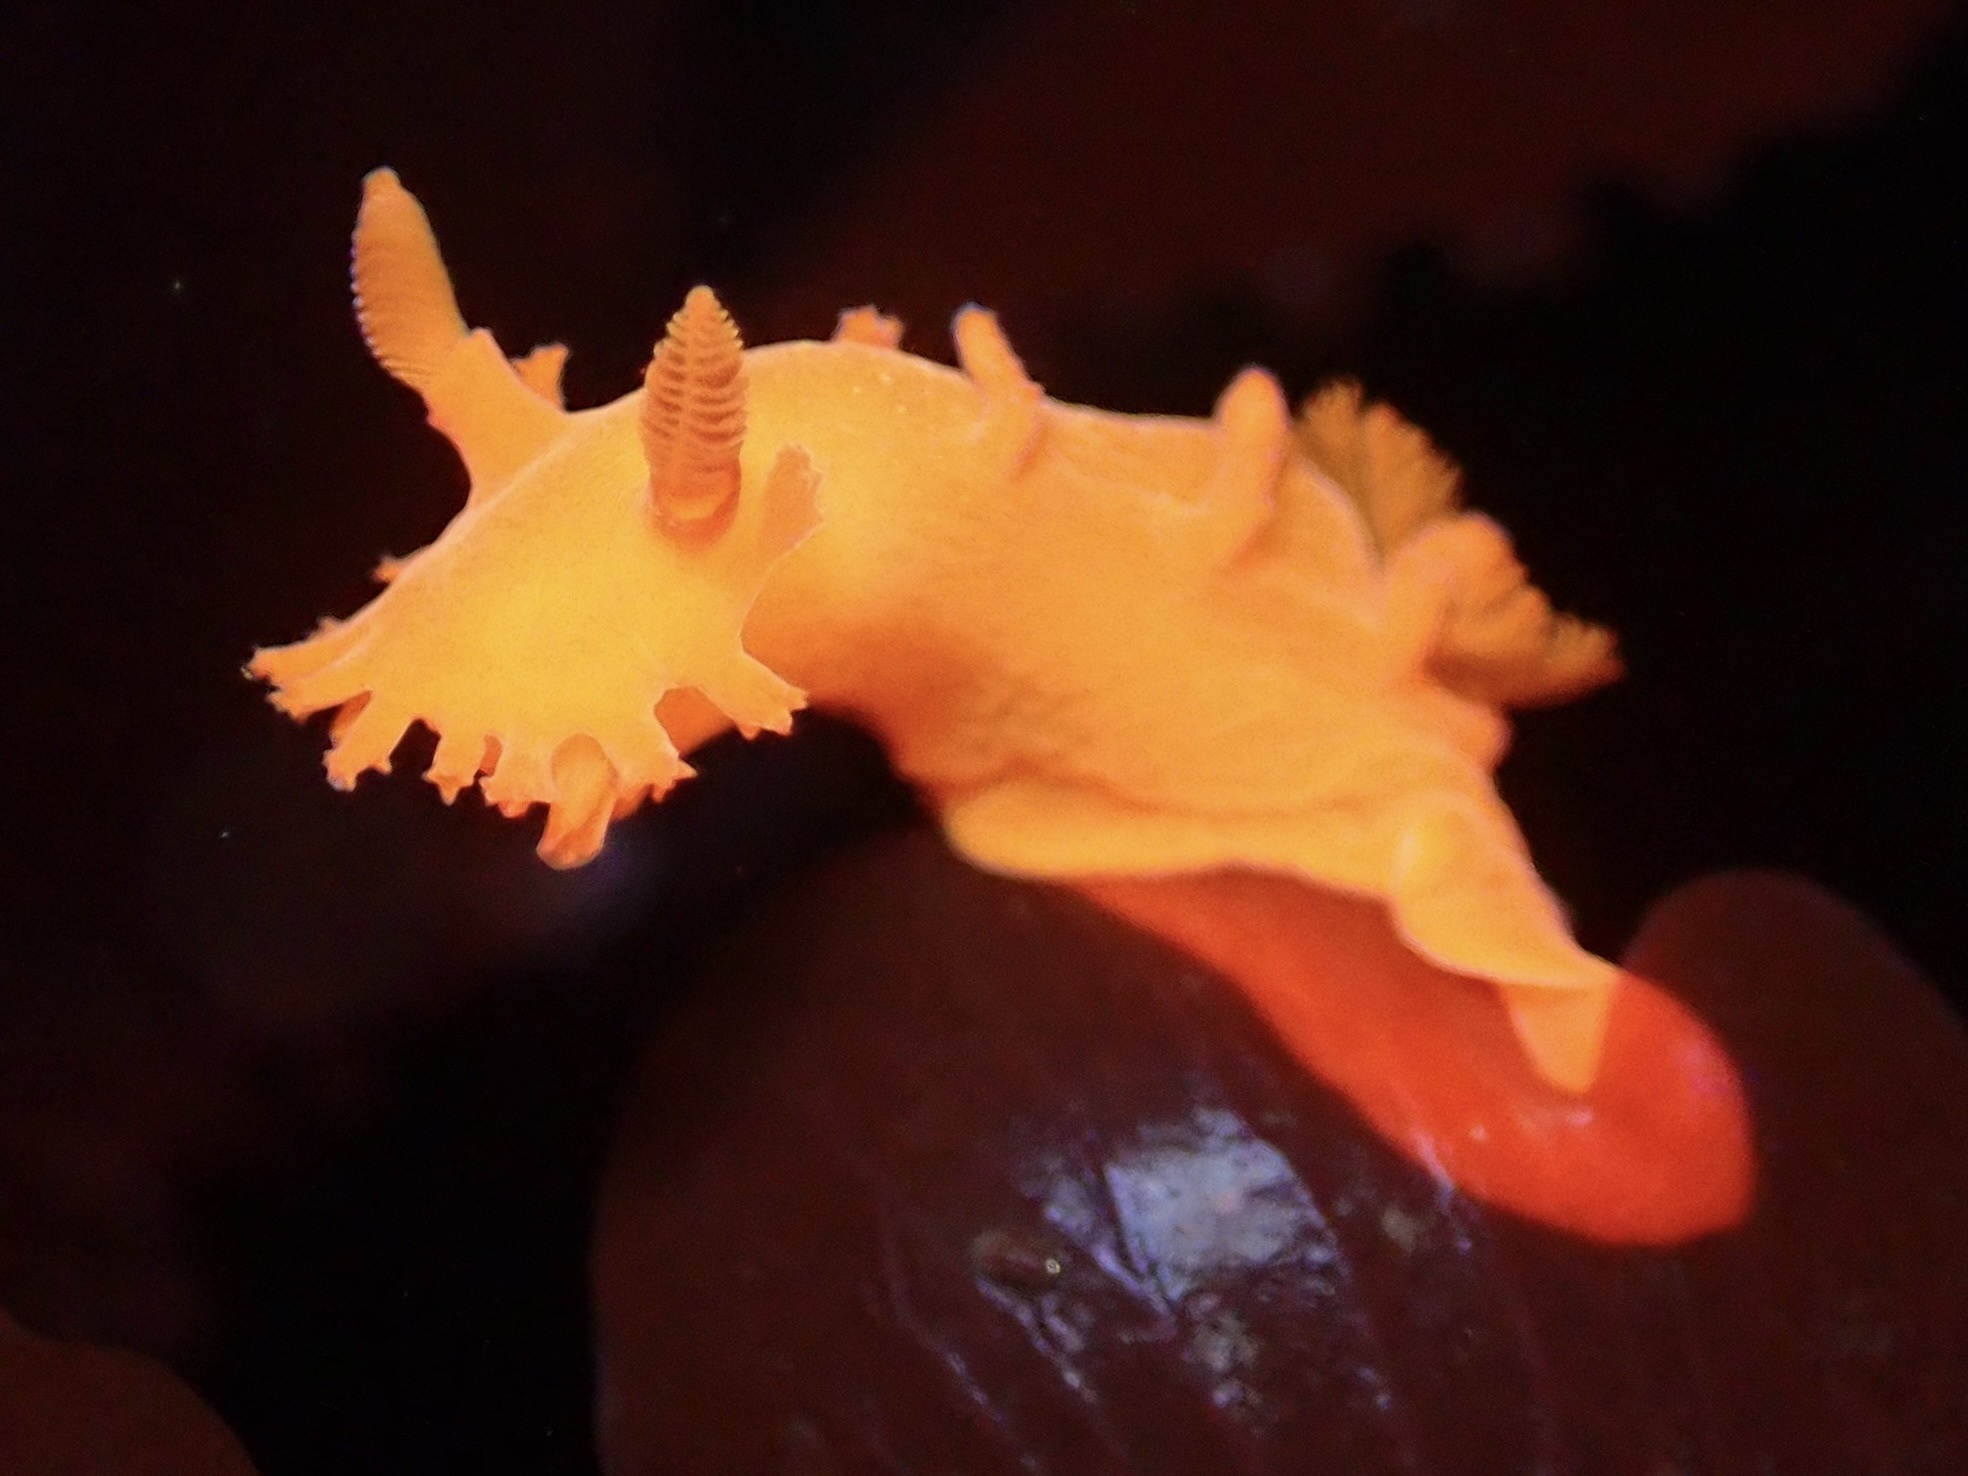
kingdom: Animalia
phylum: Mollusca
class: Gastropoda
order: Nudibranchia
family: Polyceridae
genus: Triopha
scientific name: Triopha maculata
